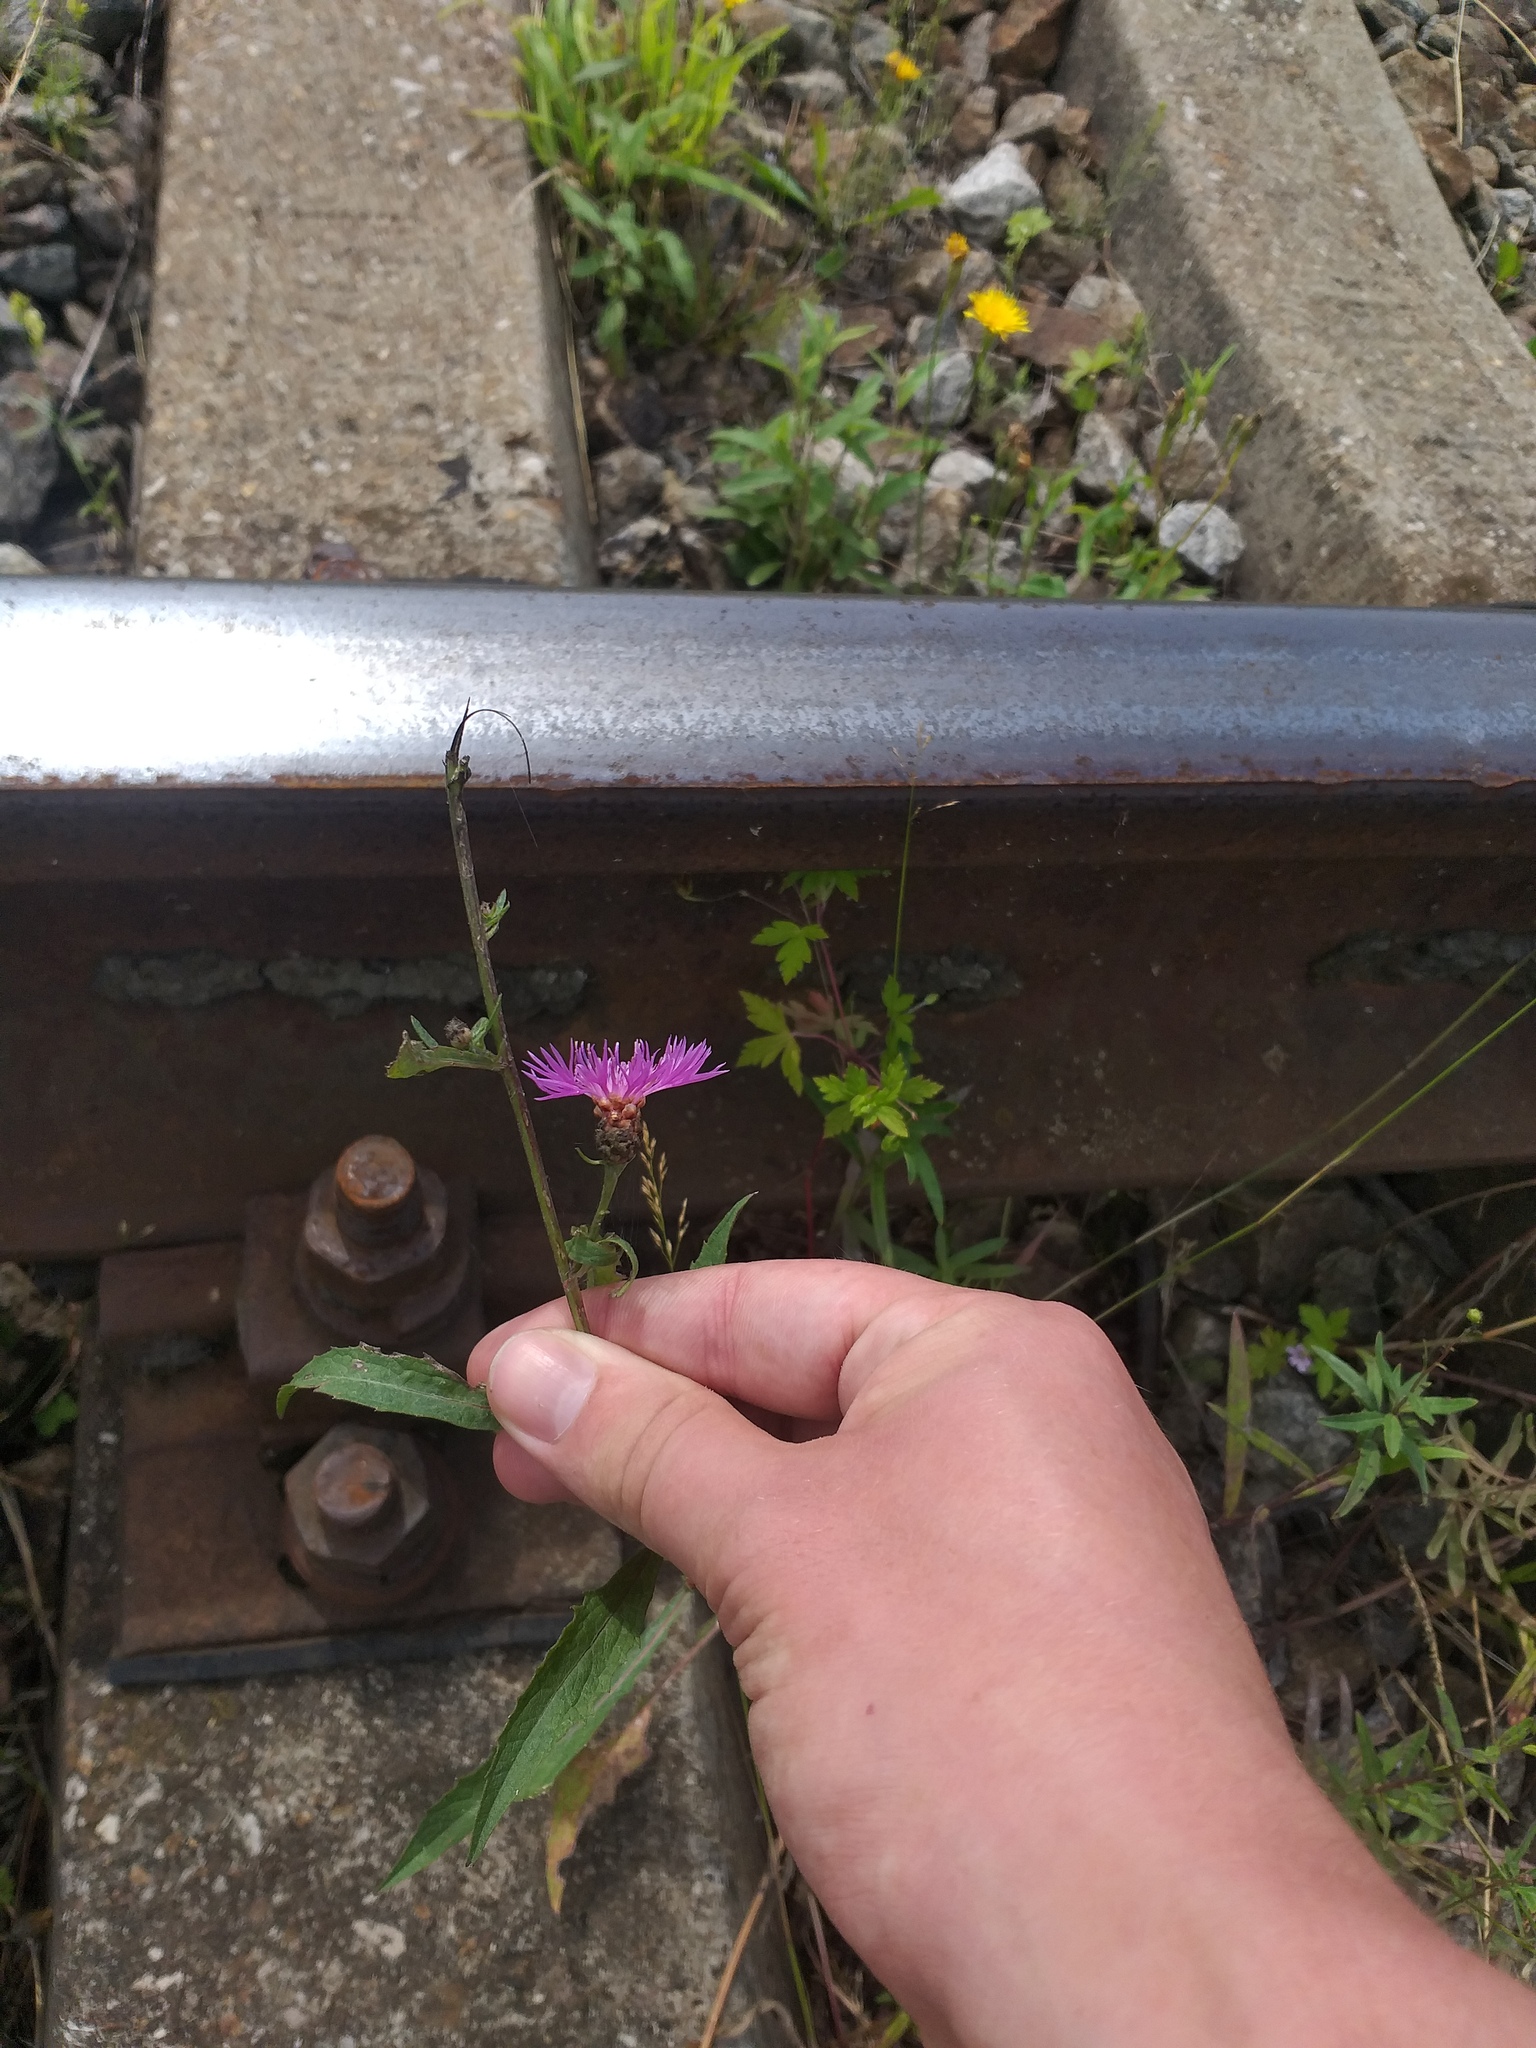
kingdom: Plantae
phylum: Tracheophyta
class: Magnoliopsida
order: Asterales
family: Asteraceae
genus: Centaurea
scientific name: Centaurea jacea
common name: Brown knapweed
